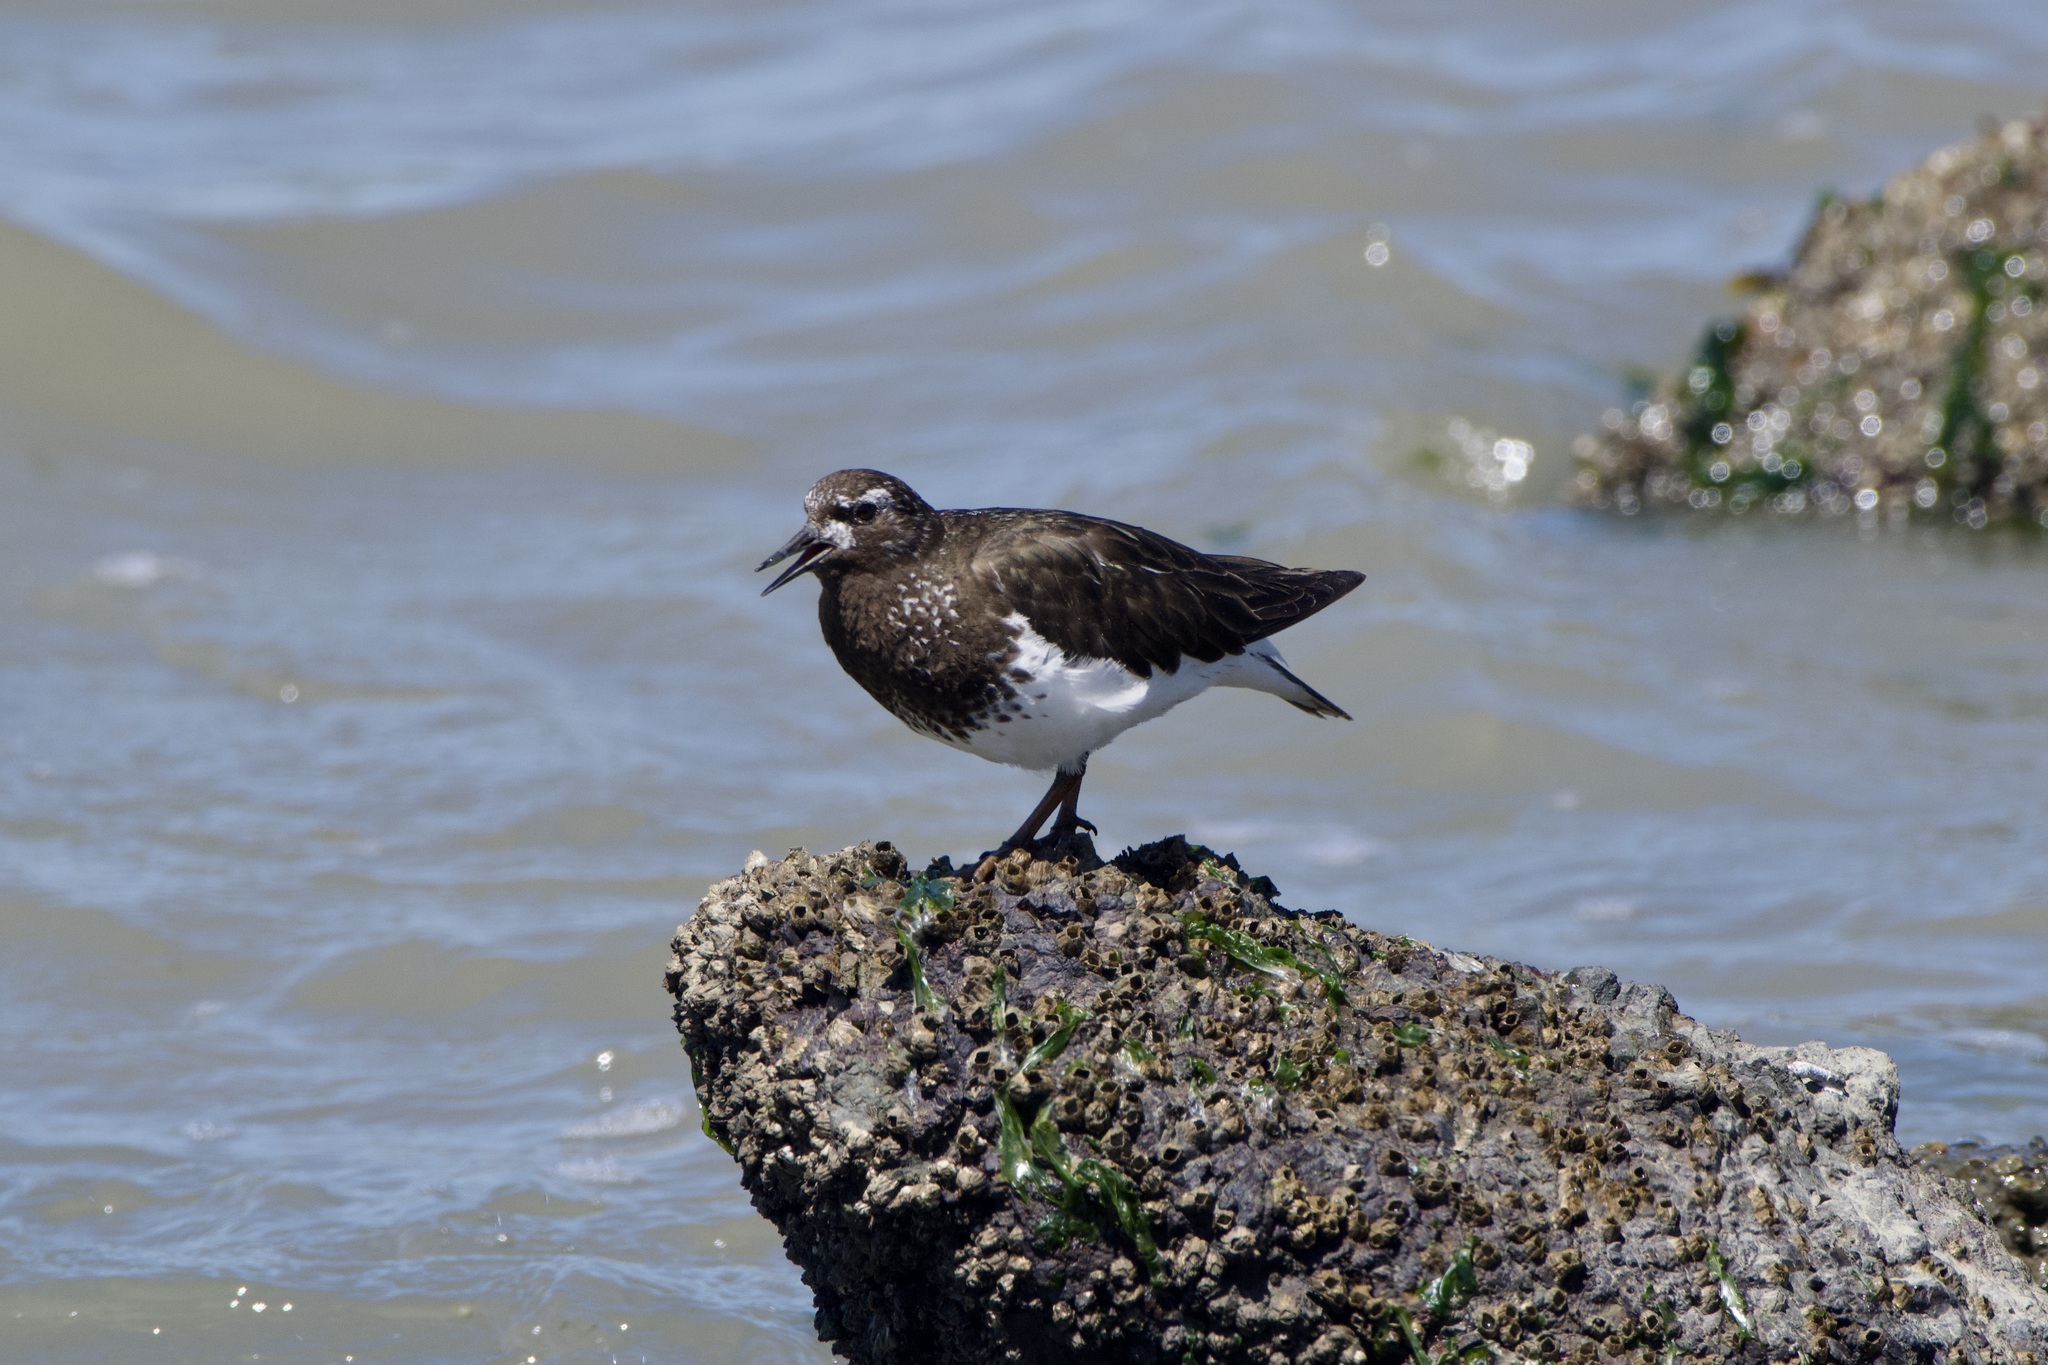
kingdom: Animalia
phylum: Chordata
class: Aves
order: Charadriiformes
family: Scolopacidae
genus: Arenaria
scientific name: Arenaria melanocephala
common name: Black turnstone
